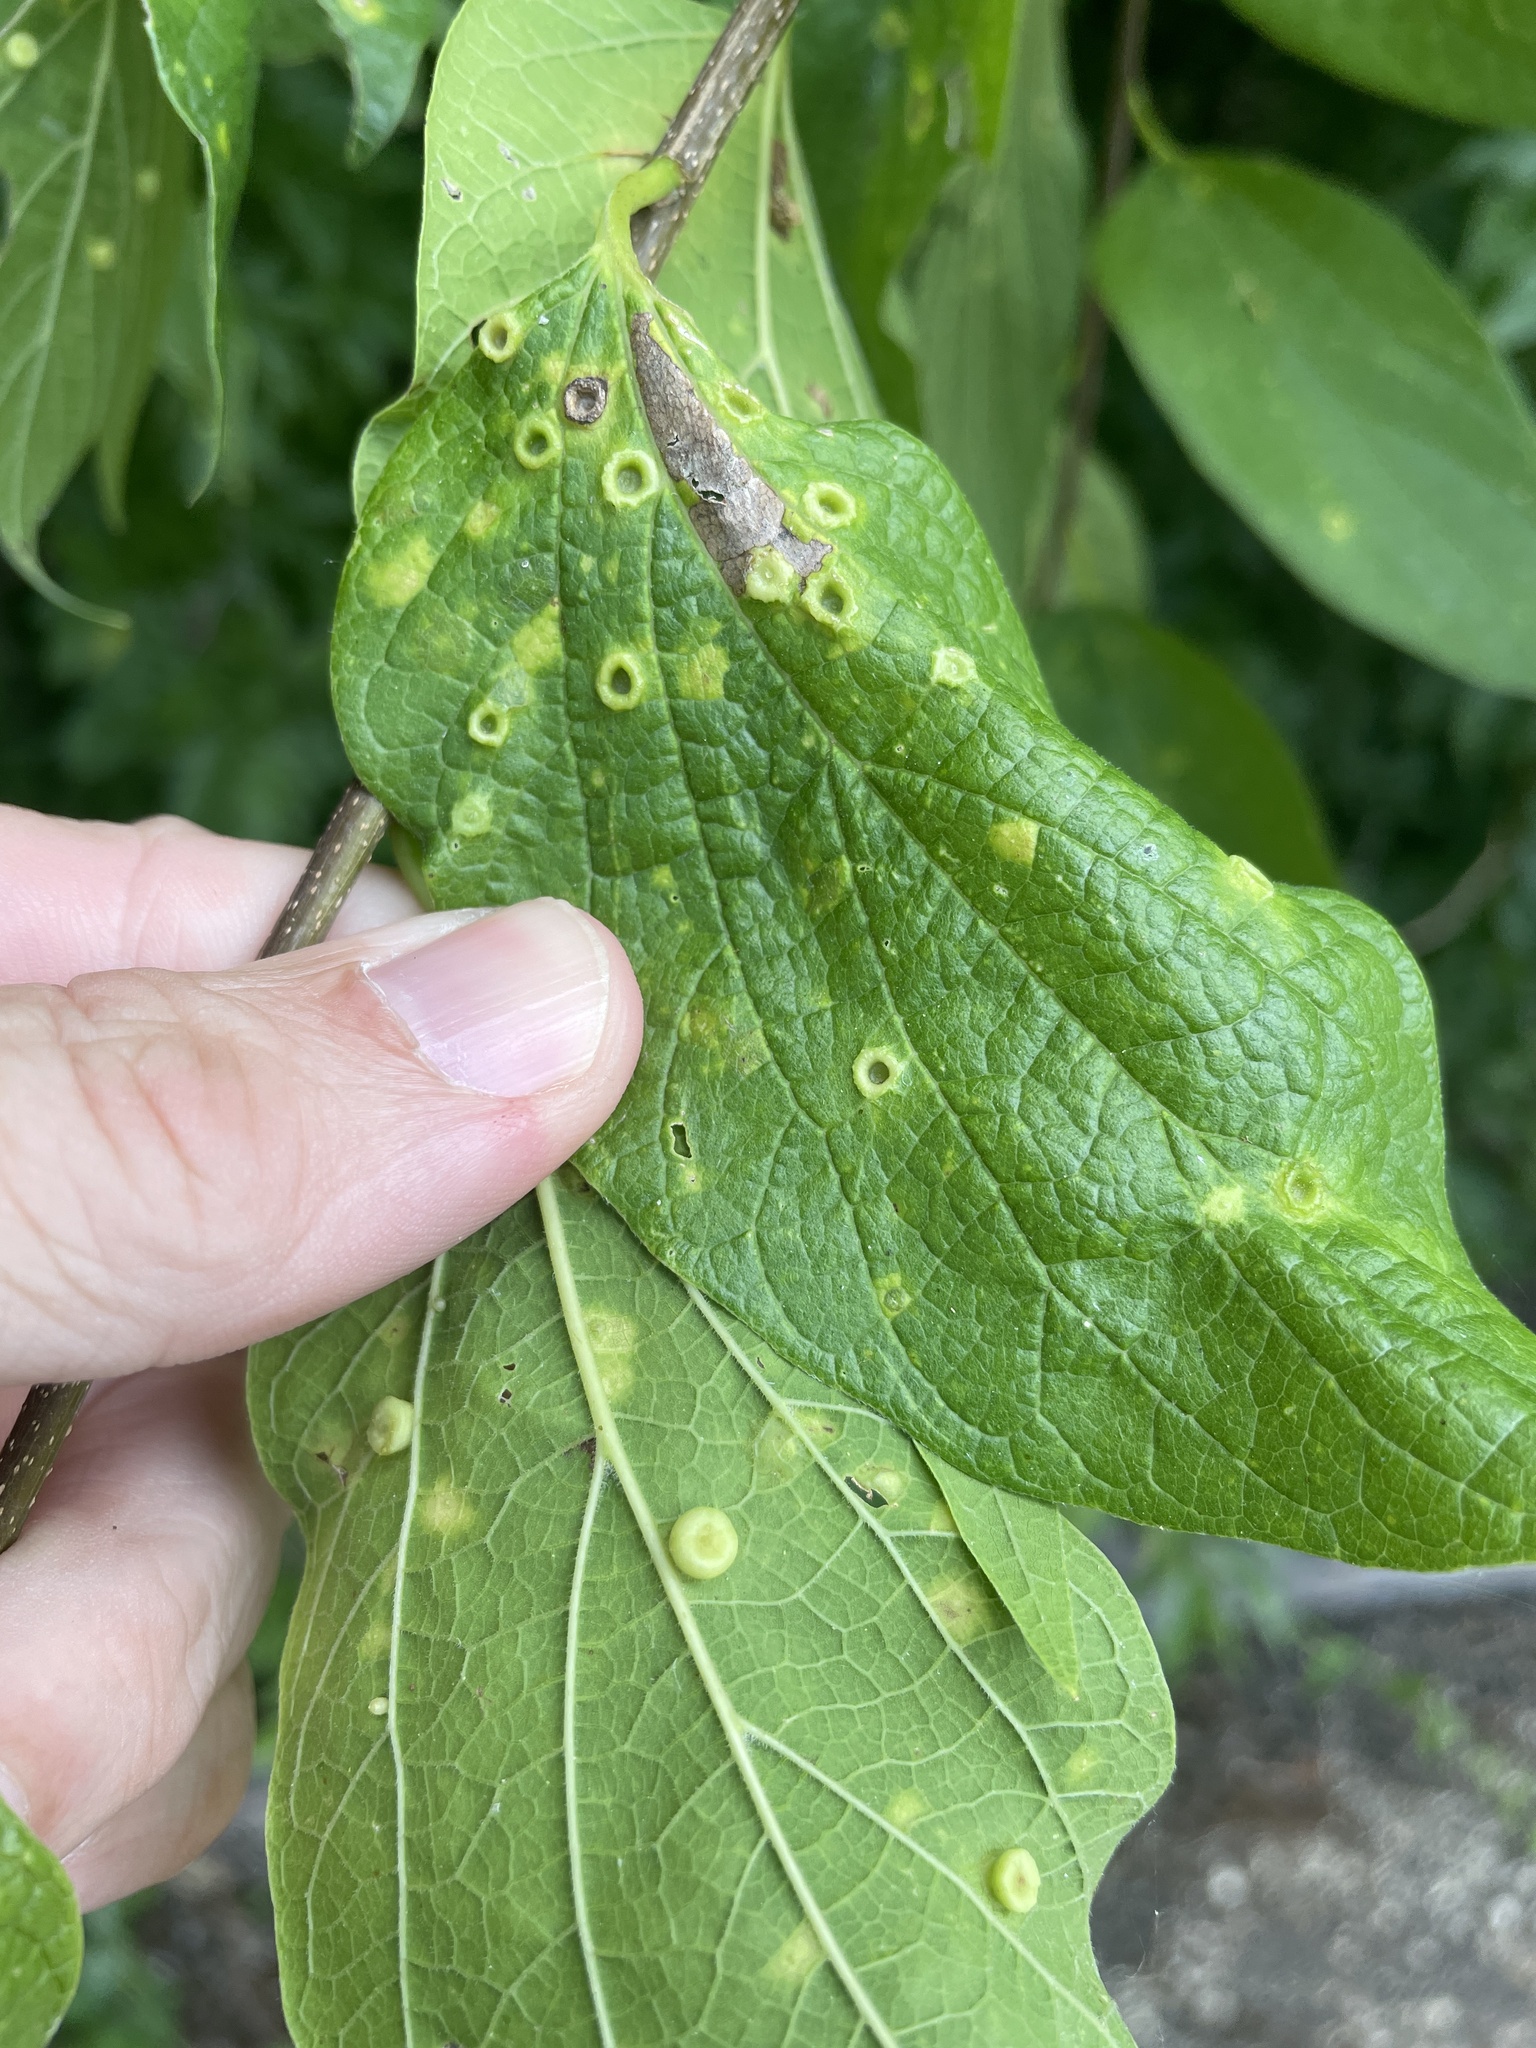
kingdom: Animalia
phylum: Arthropoda
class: Insecta
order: Hemiptera
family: Aphalaridae
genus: Pachypsylla
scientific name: Pachypsylla celtidismamma
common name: Hackberry nipplegall psyllid
